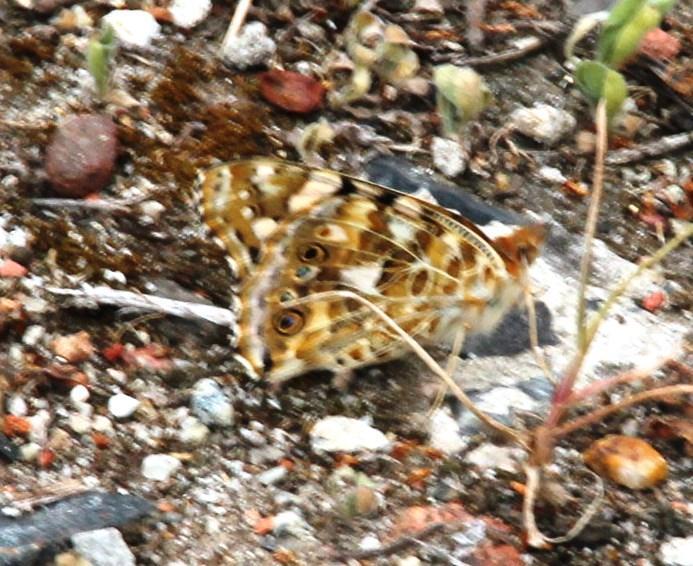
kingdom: Animalia
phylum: Arthropoda
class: Insecta
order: Lepidoptera
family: Nymphalidae
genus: Vanessa
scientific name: Vanessa cardui
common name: Painted lady
